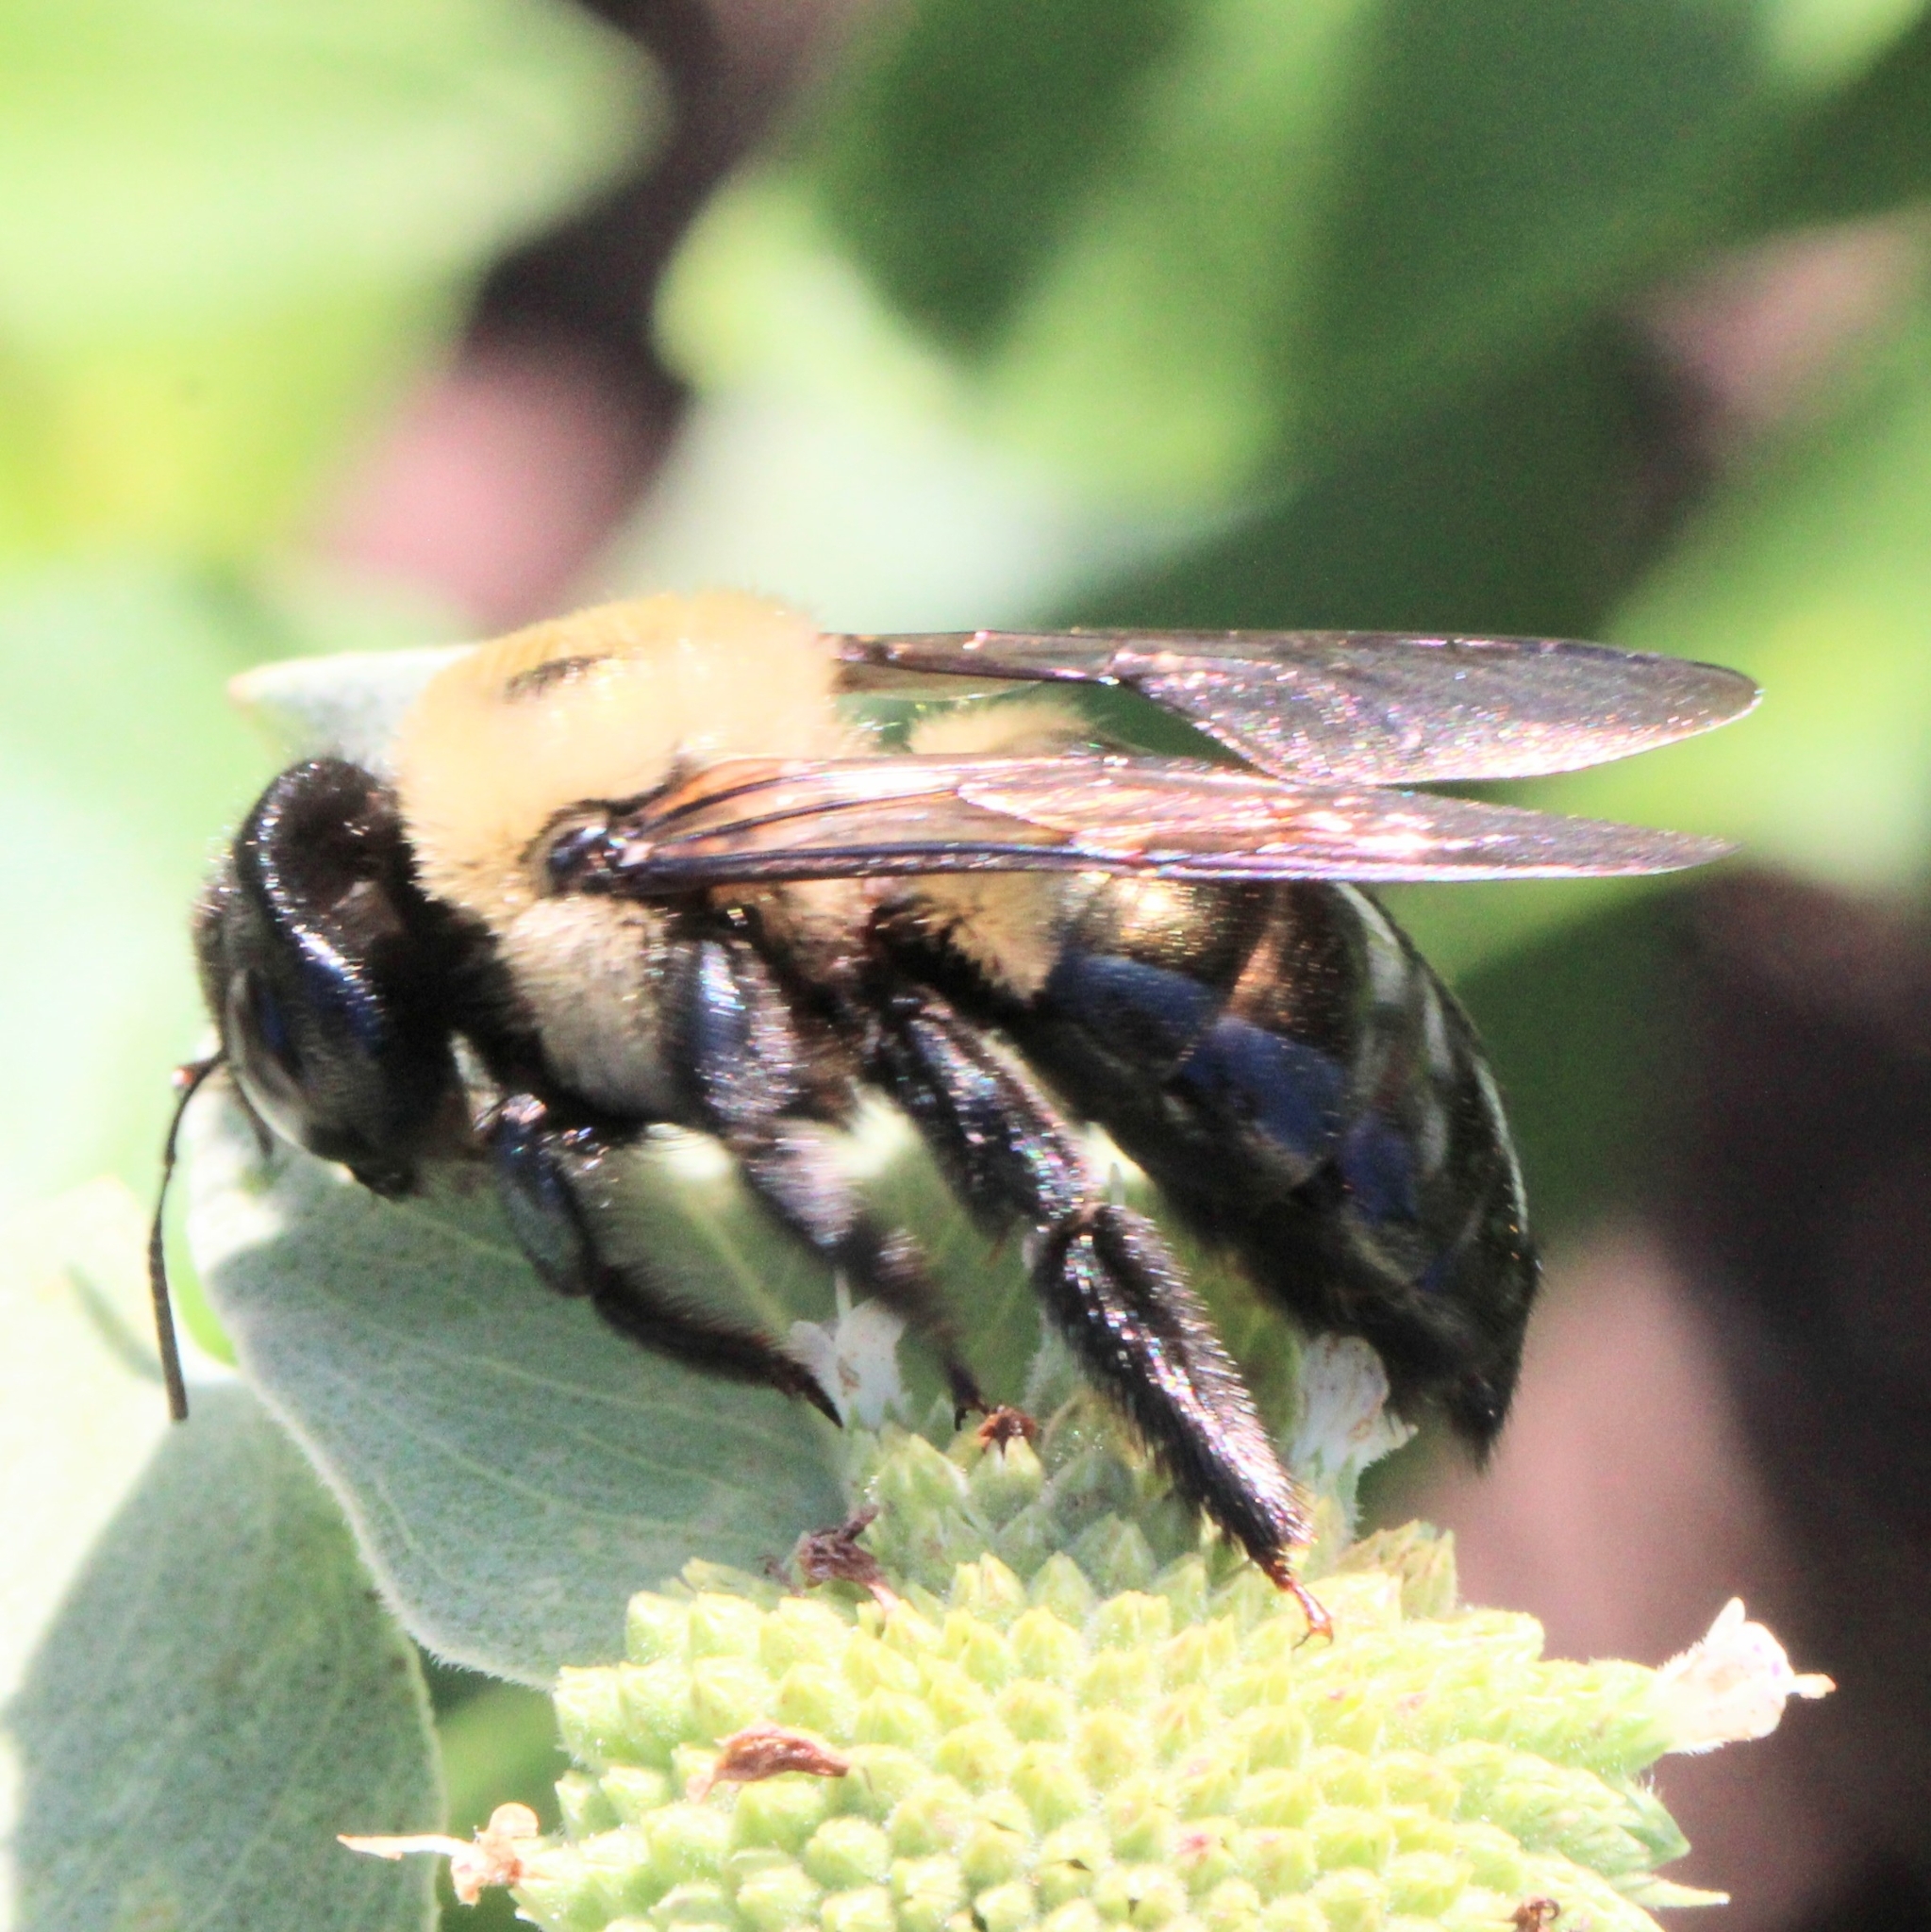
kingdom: Animalia
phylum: Arthropoda
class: Insecta
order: Hymenoptera
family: Apidae
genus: Xylocopa
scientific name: Xylocopa virginica
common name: Carpenter bee
